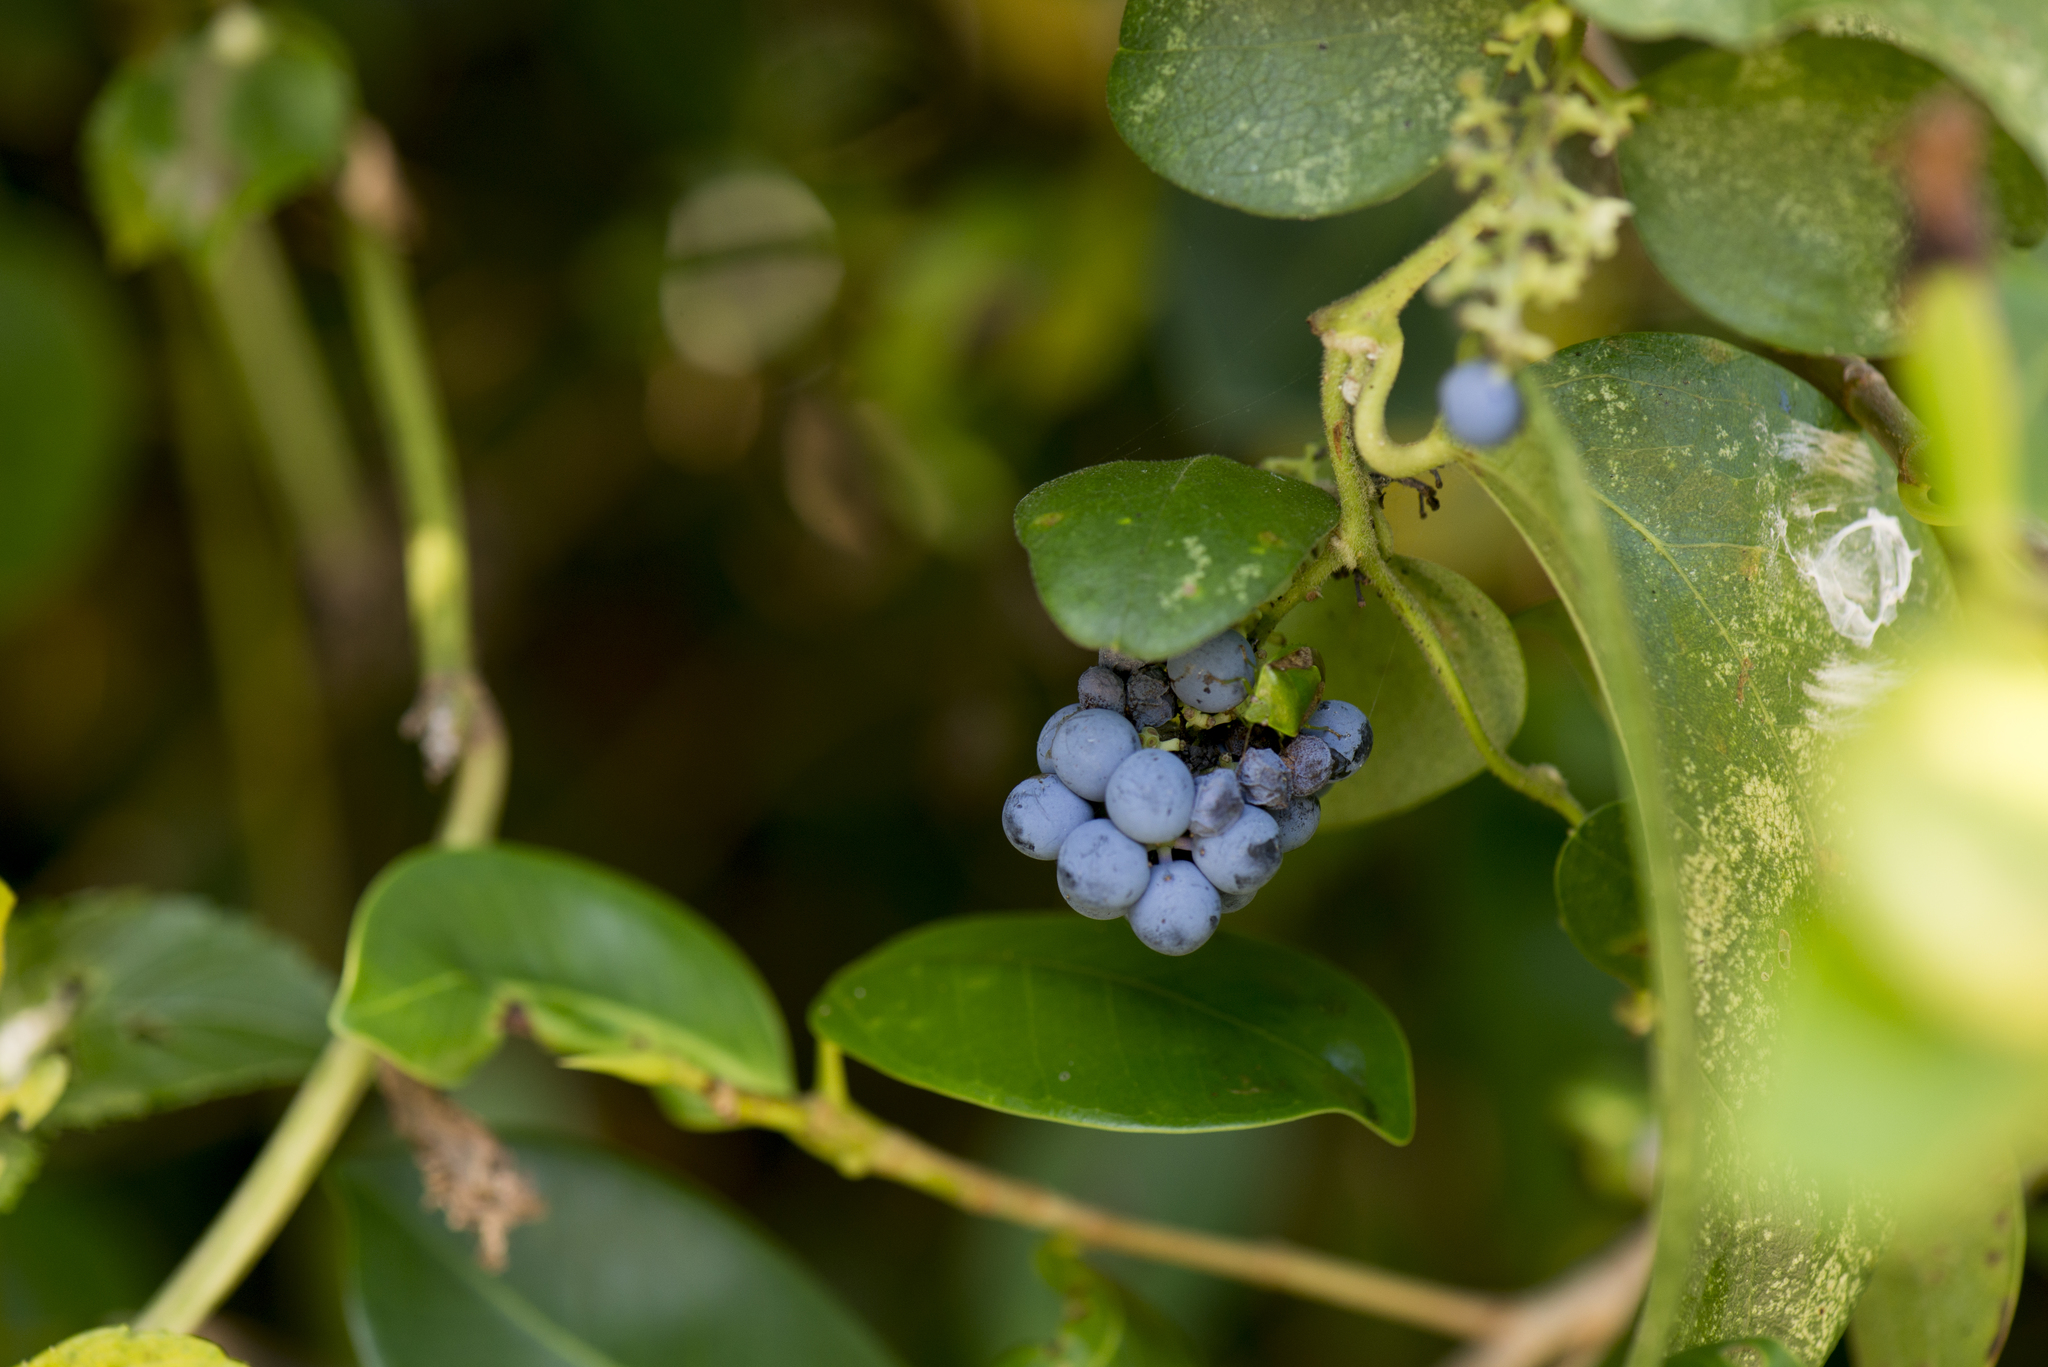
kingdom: Plantae
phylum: Tracheophyta
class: Magnoliopsida
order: Ranunculales
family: Menispermaceae
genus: Cocculus
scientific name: Cocculus orbiculatus
